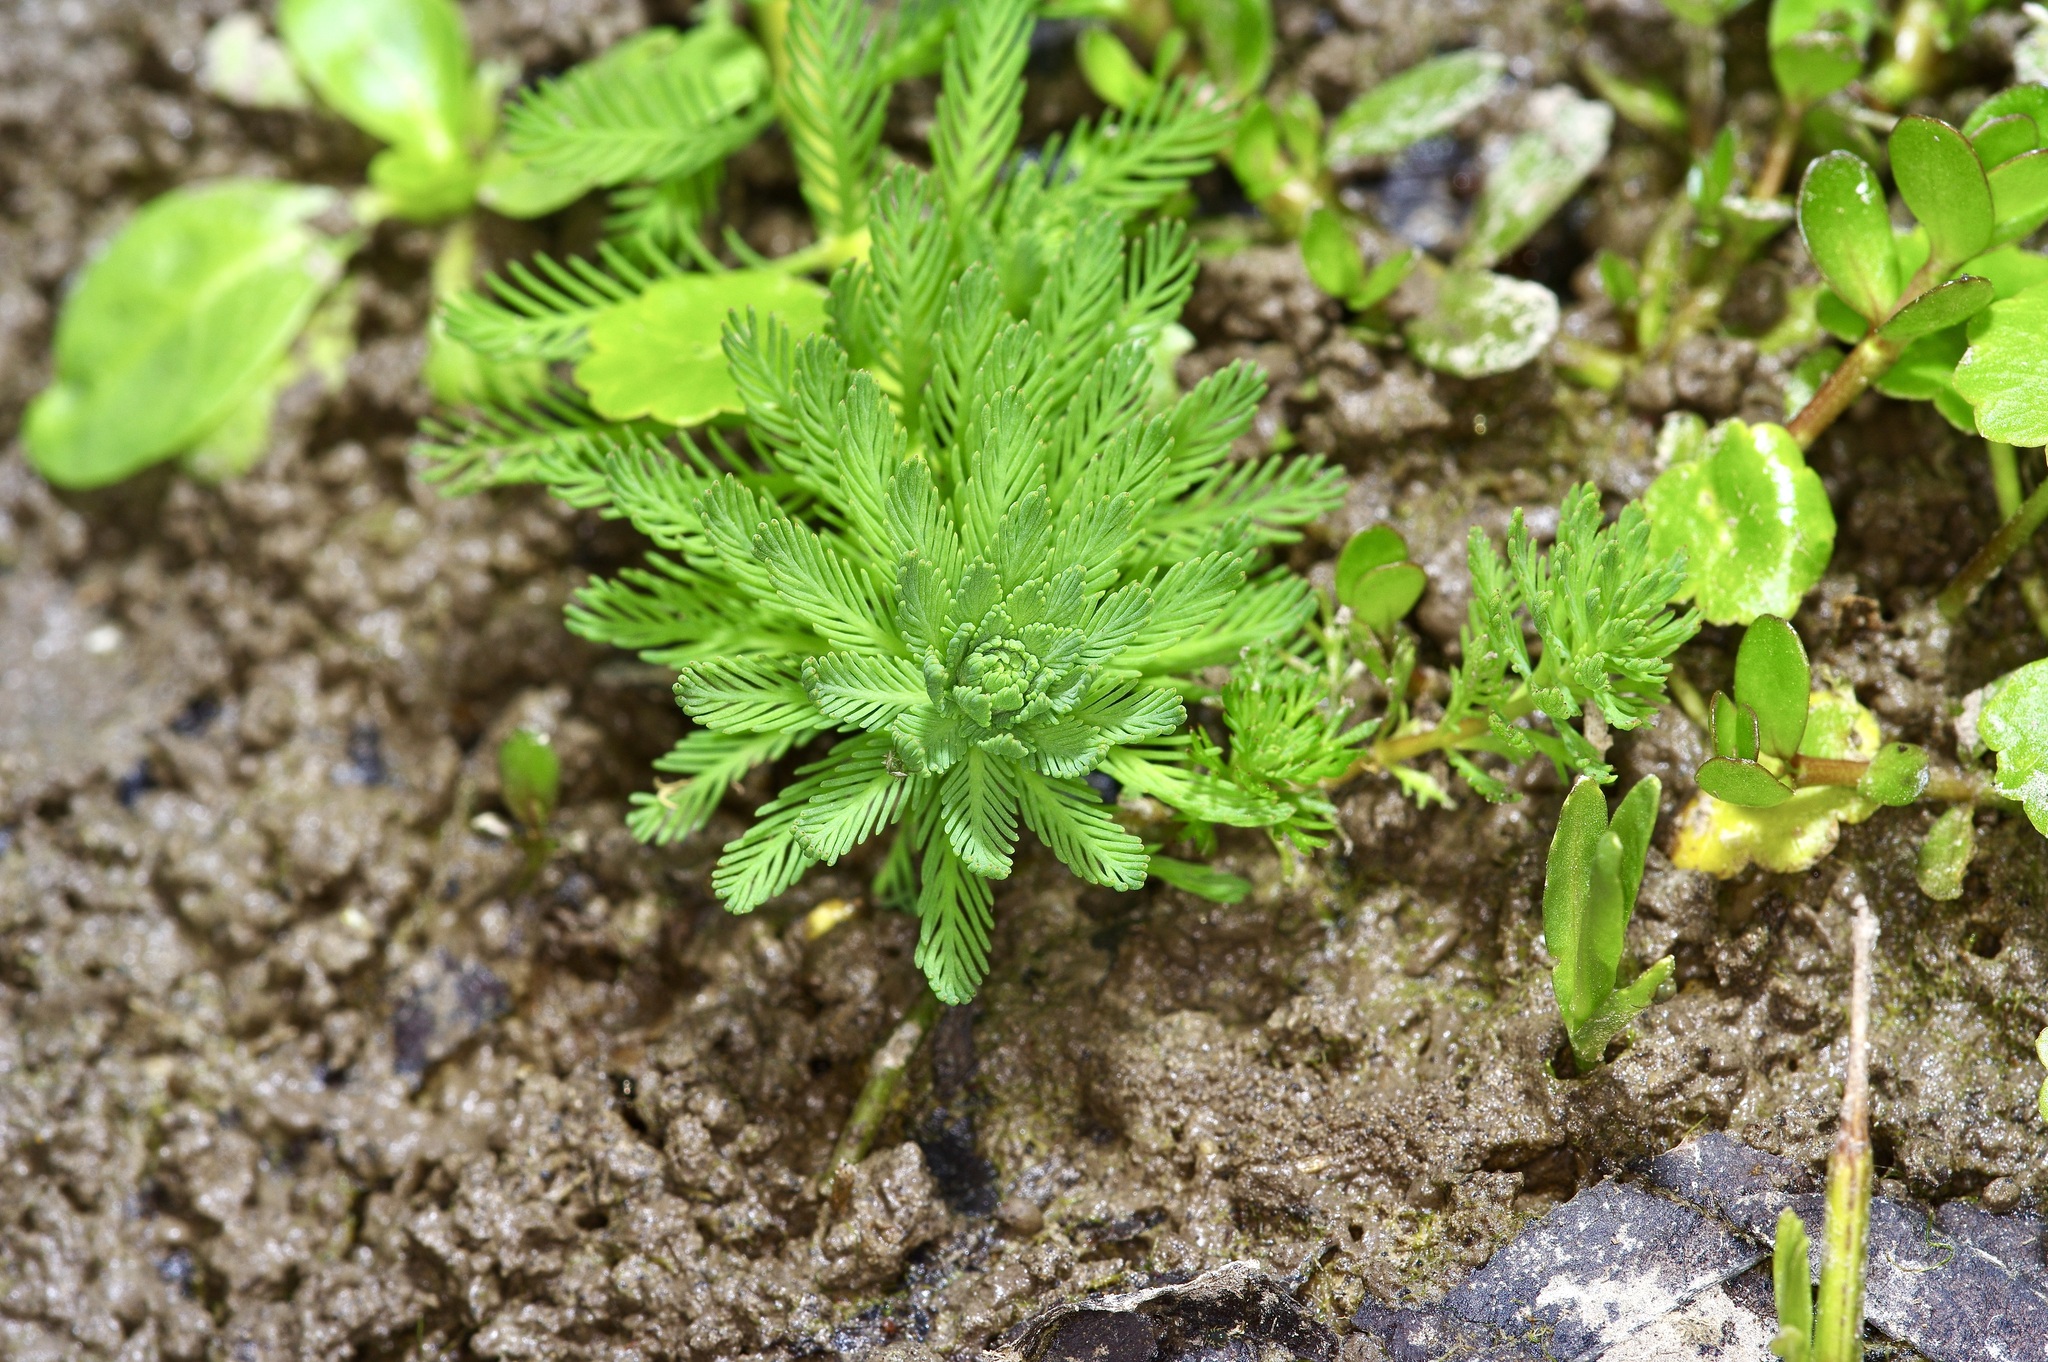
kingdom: Plantae
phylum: Tracheophyta
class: Magnoliopsida
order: Saxifragales
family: Haloragaceae
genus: Myriophyllum
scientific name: Myriophyllum aquaticum
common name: Parrot's feather
